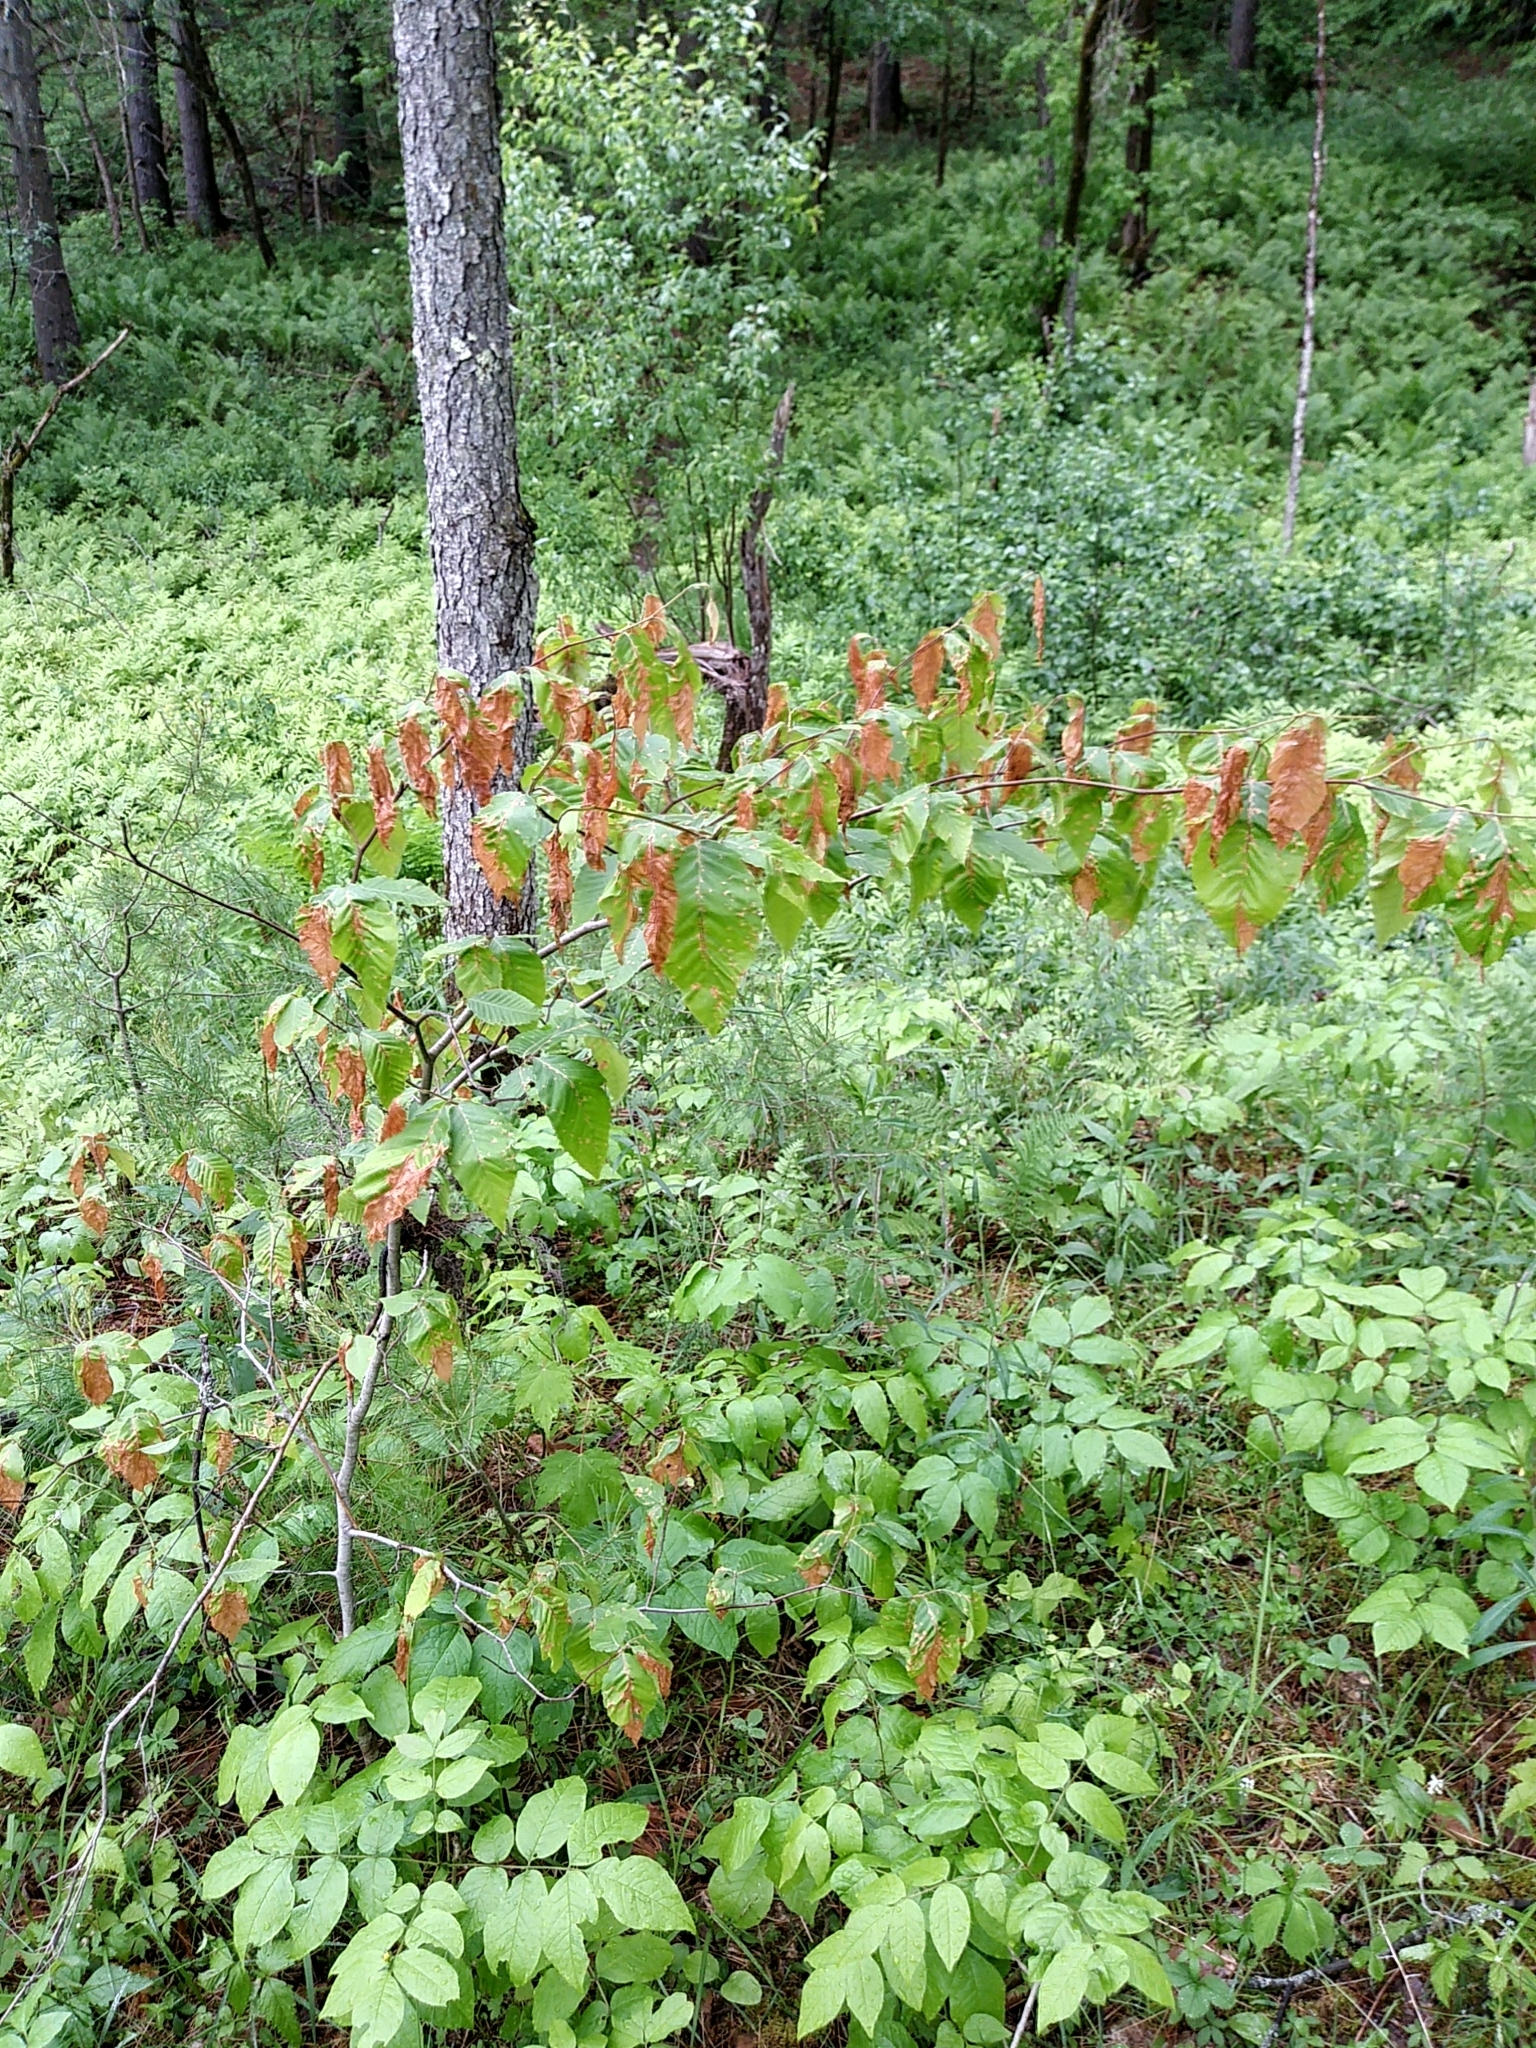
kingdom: Plantae
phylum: Tracheophyta
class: Magnoliopsida
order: Fagales
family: Fagaceae
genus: Fagus
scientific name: Fagus grandifolia
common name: American beech
